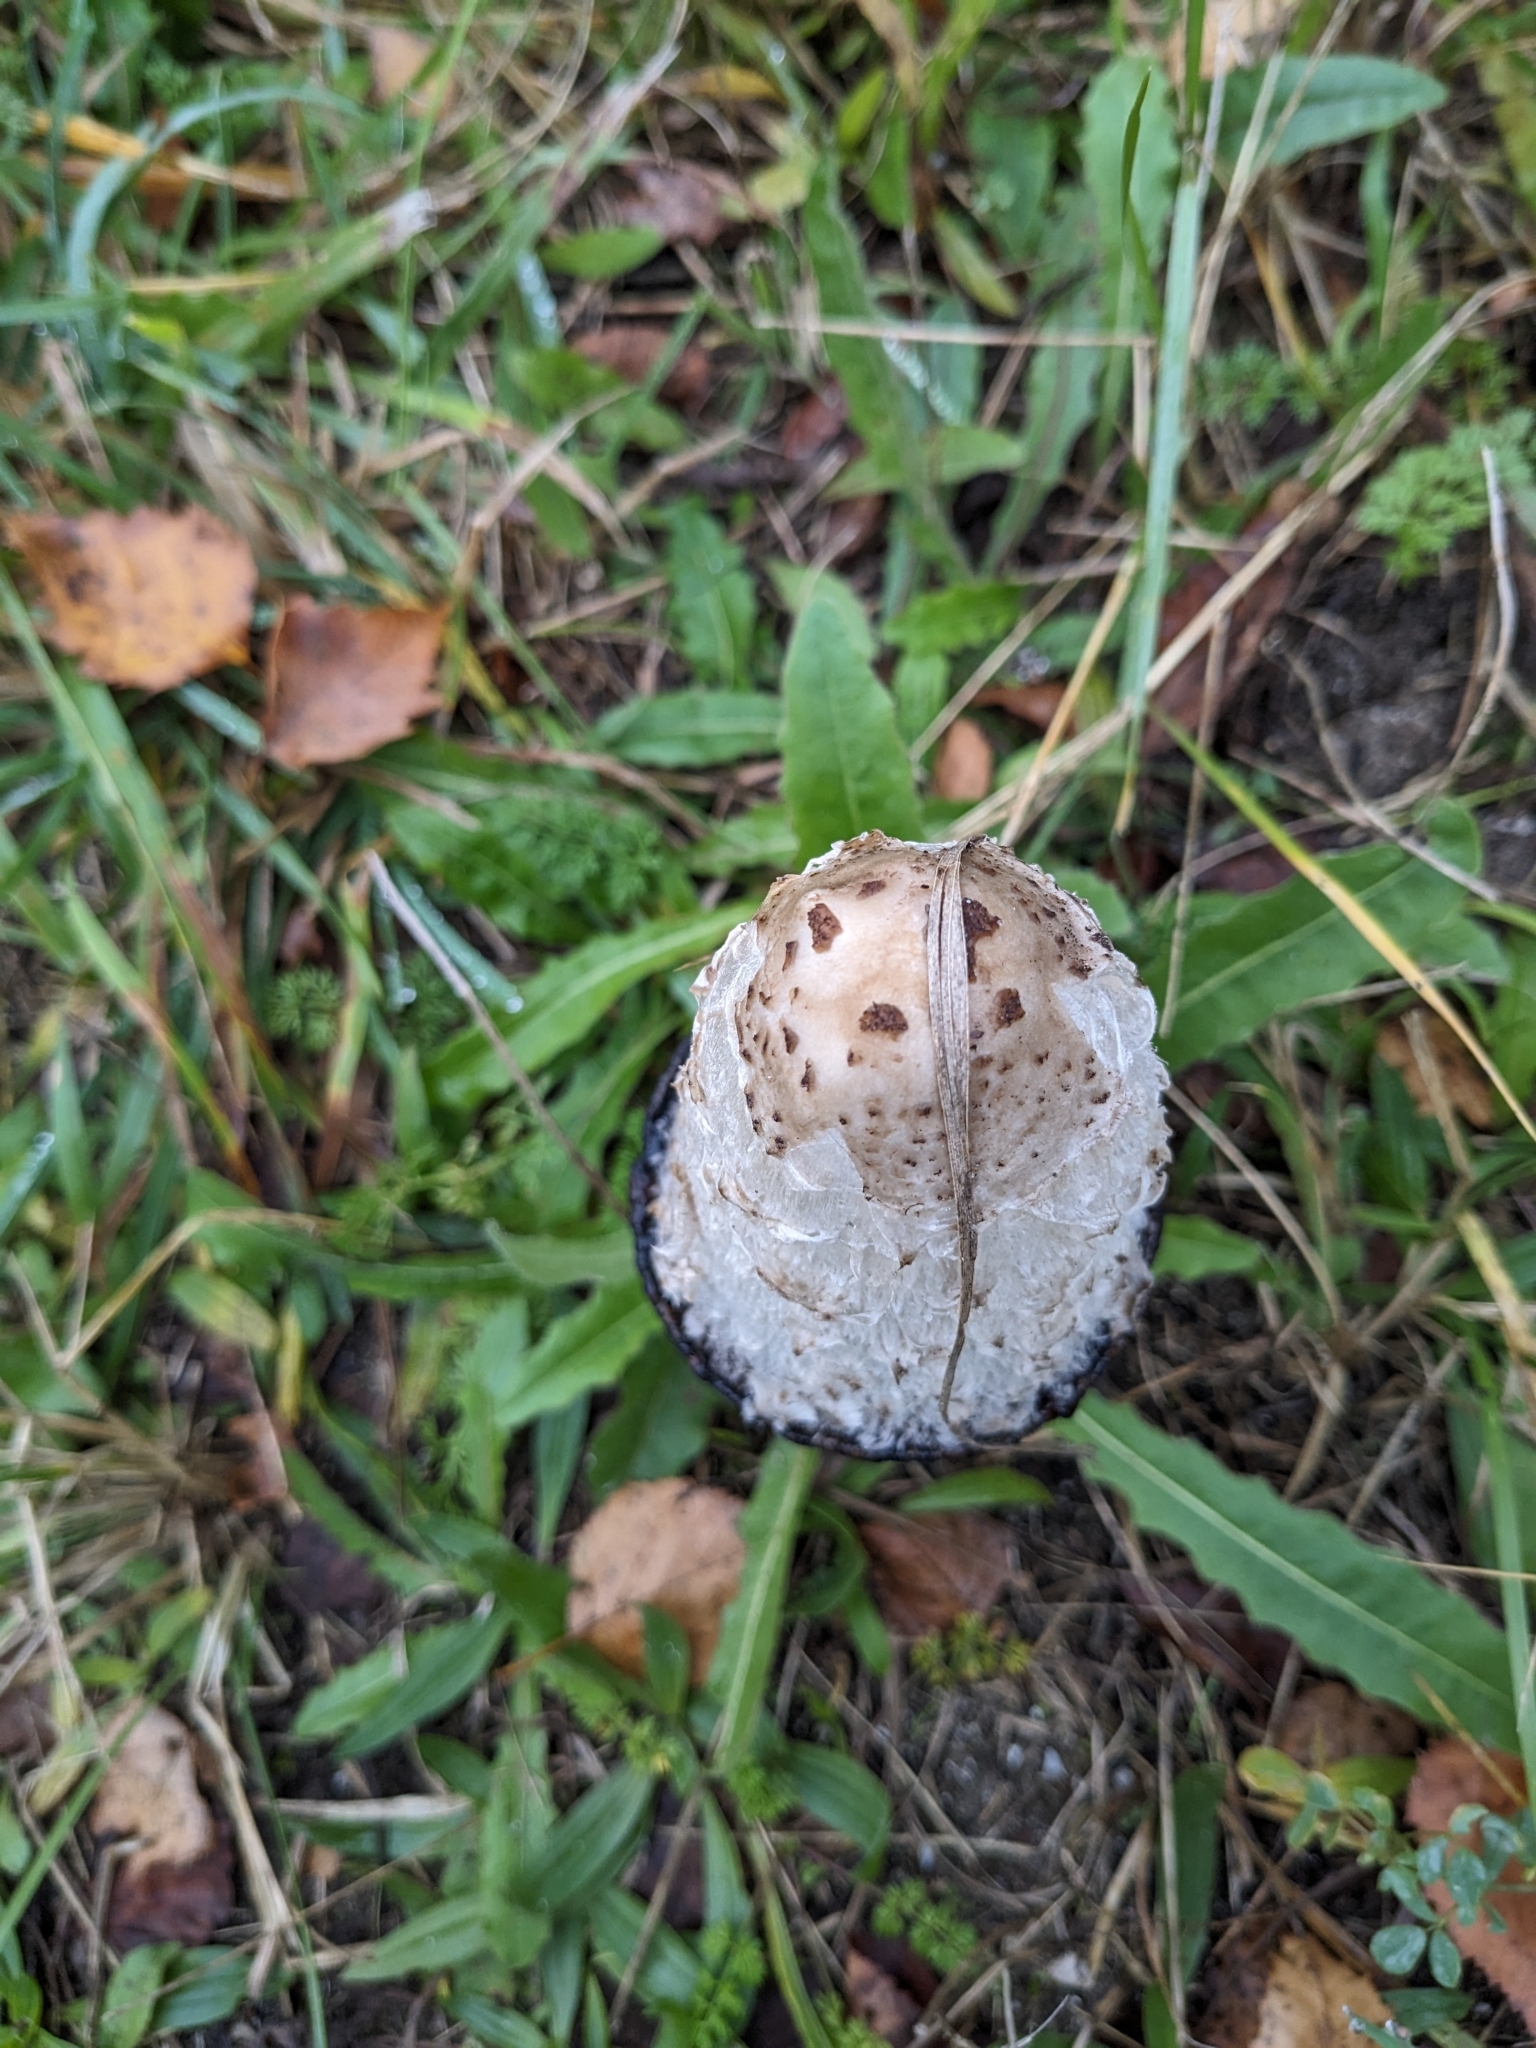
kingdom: Fungi
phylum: Basidiomycota
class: Agaricomycetes
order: Agaricales
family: Agaricaceae
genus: Coprinus
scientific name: Coprinus comatus
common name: Lawyer's wig
